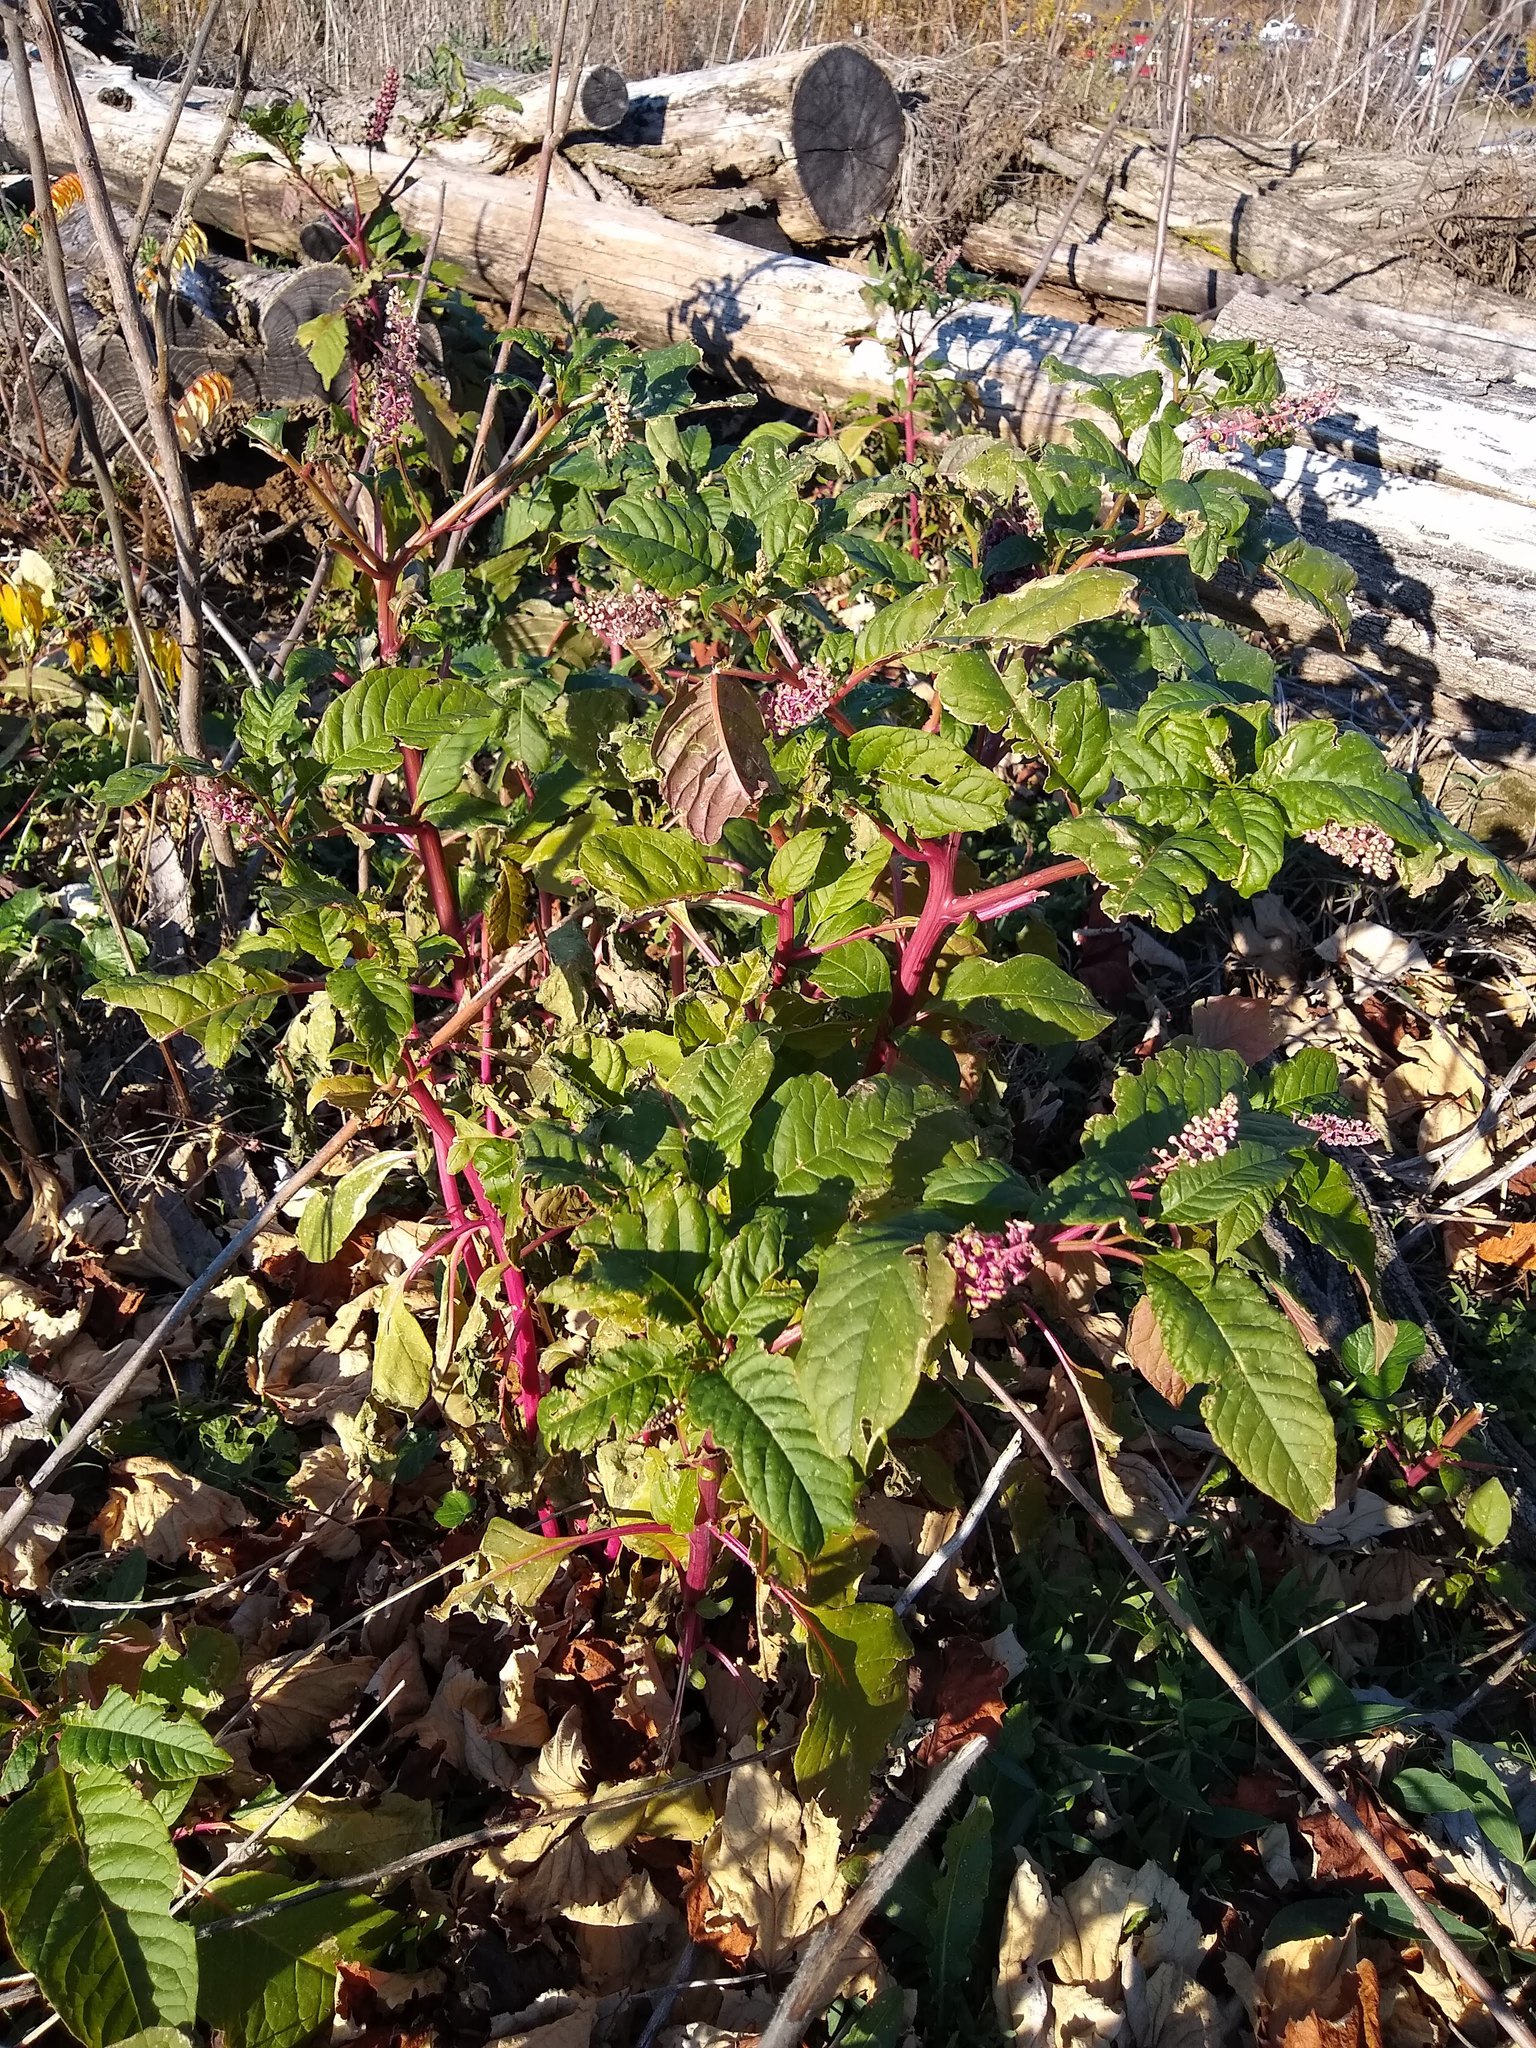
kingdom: Plantae
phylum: Tracheophyta
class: Magnoliopsida
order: Caryophyllales
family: Phytolaccaceae
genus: Phytolacca
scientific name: Phytolacca americana
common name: American pokeweed
